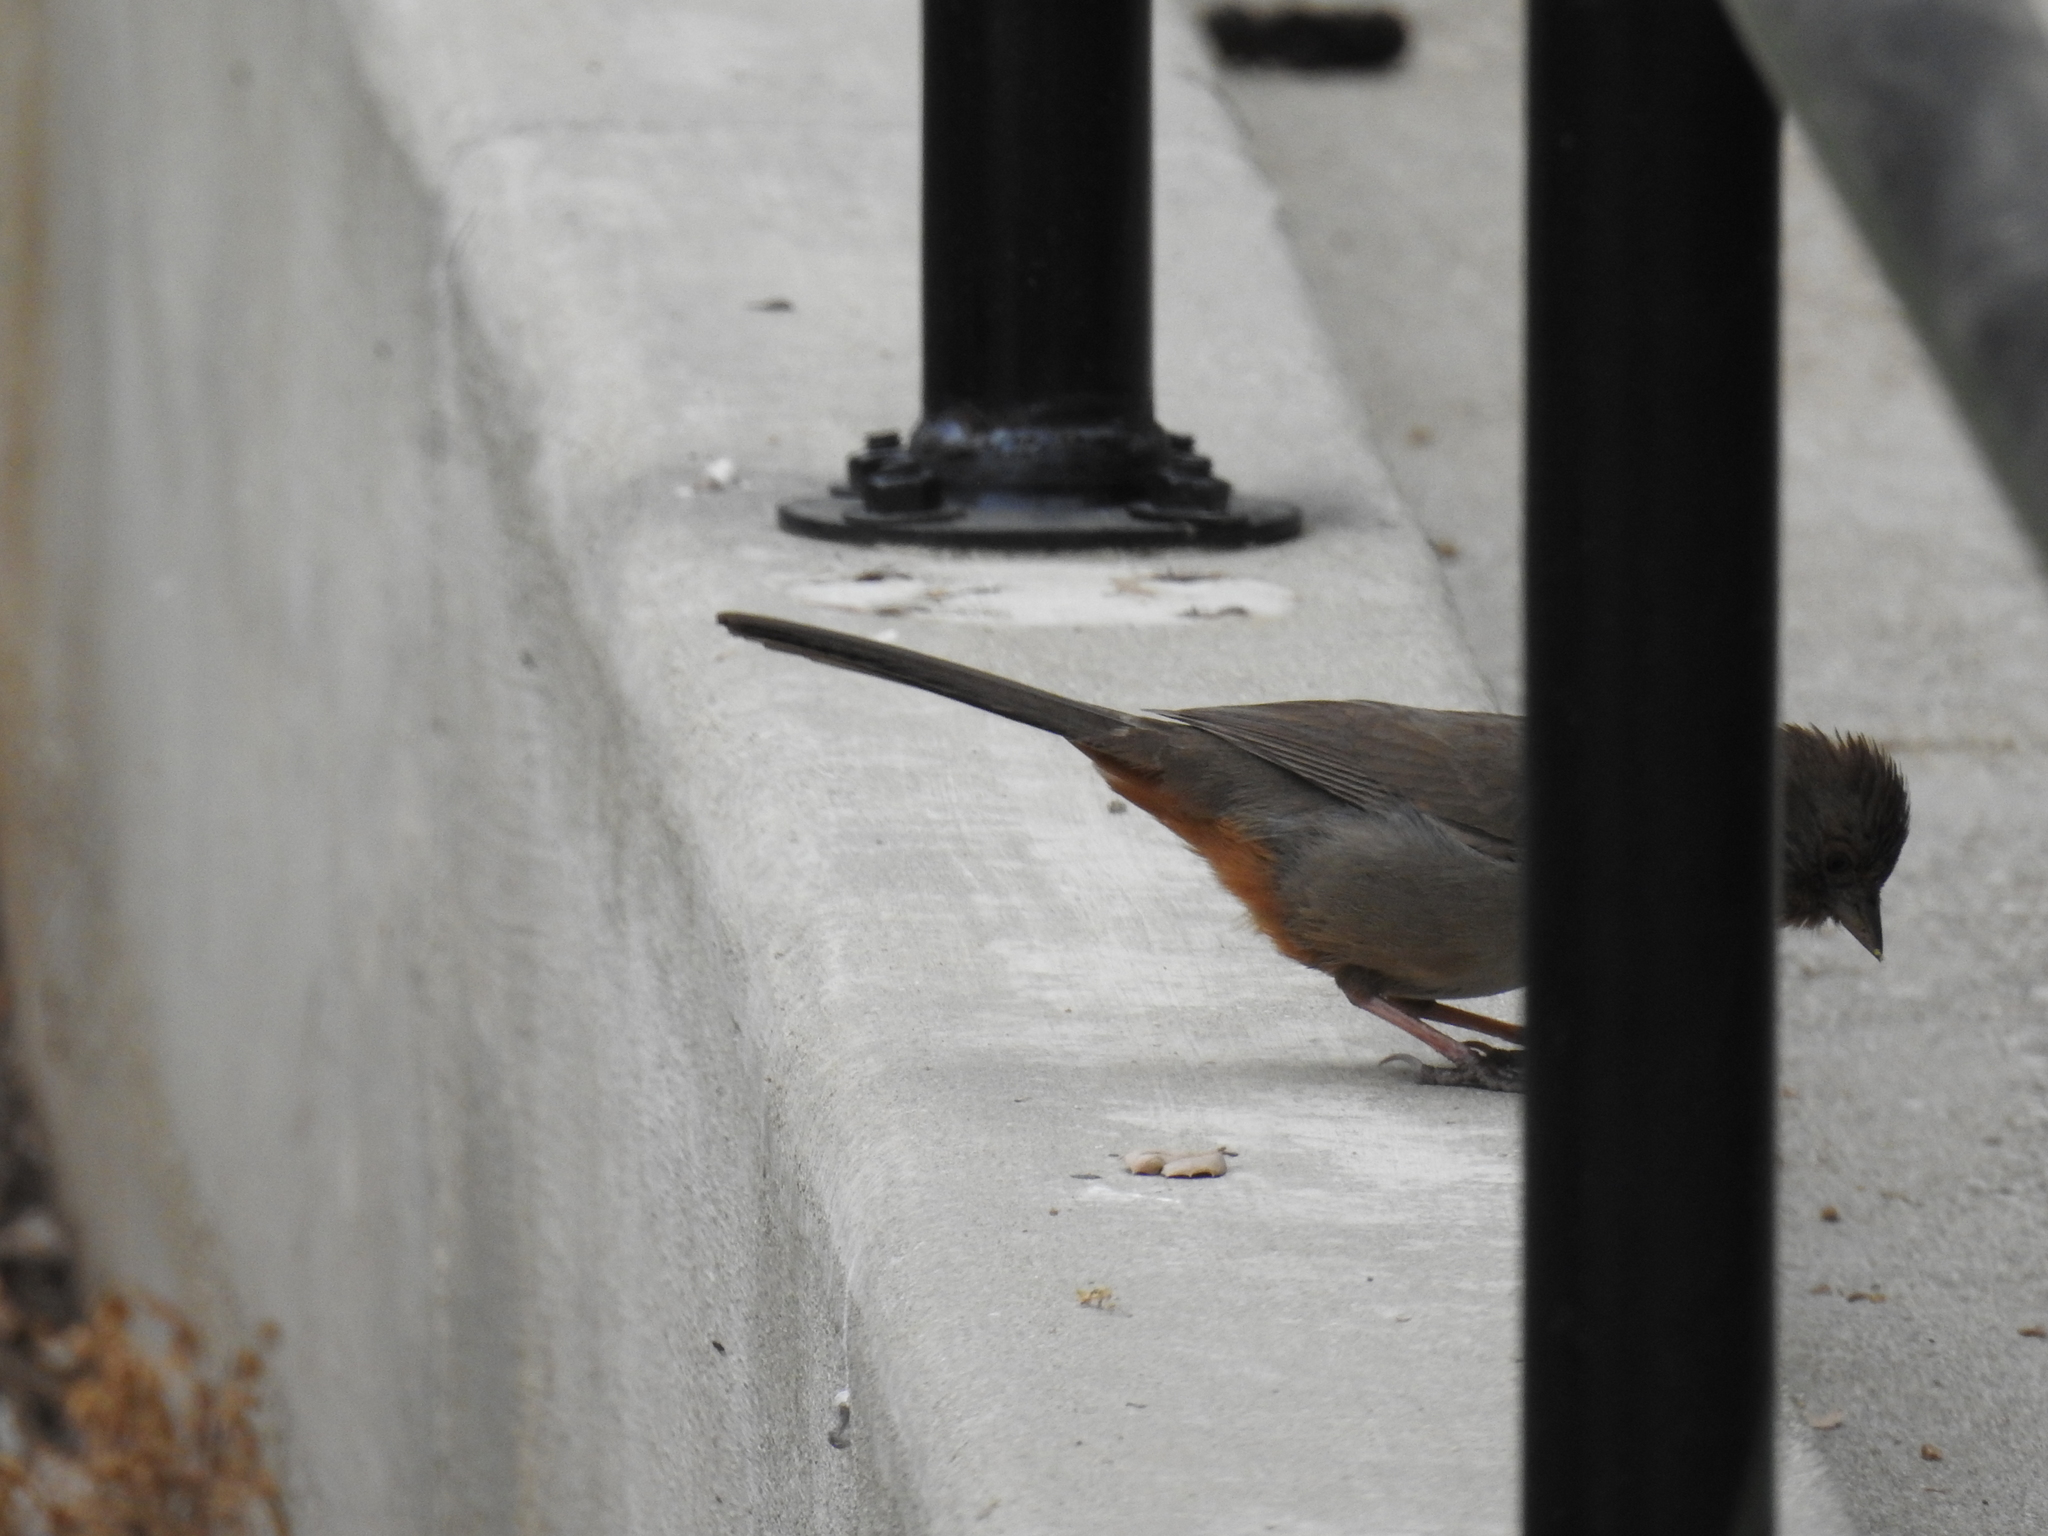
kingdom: Animalia
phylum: Chordata
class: Aves
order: Passeriformes
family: Passerellidae
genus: Melozone
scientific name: Melozone crissalis
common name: California towhee
